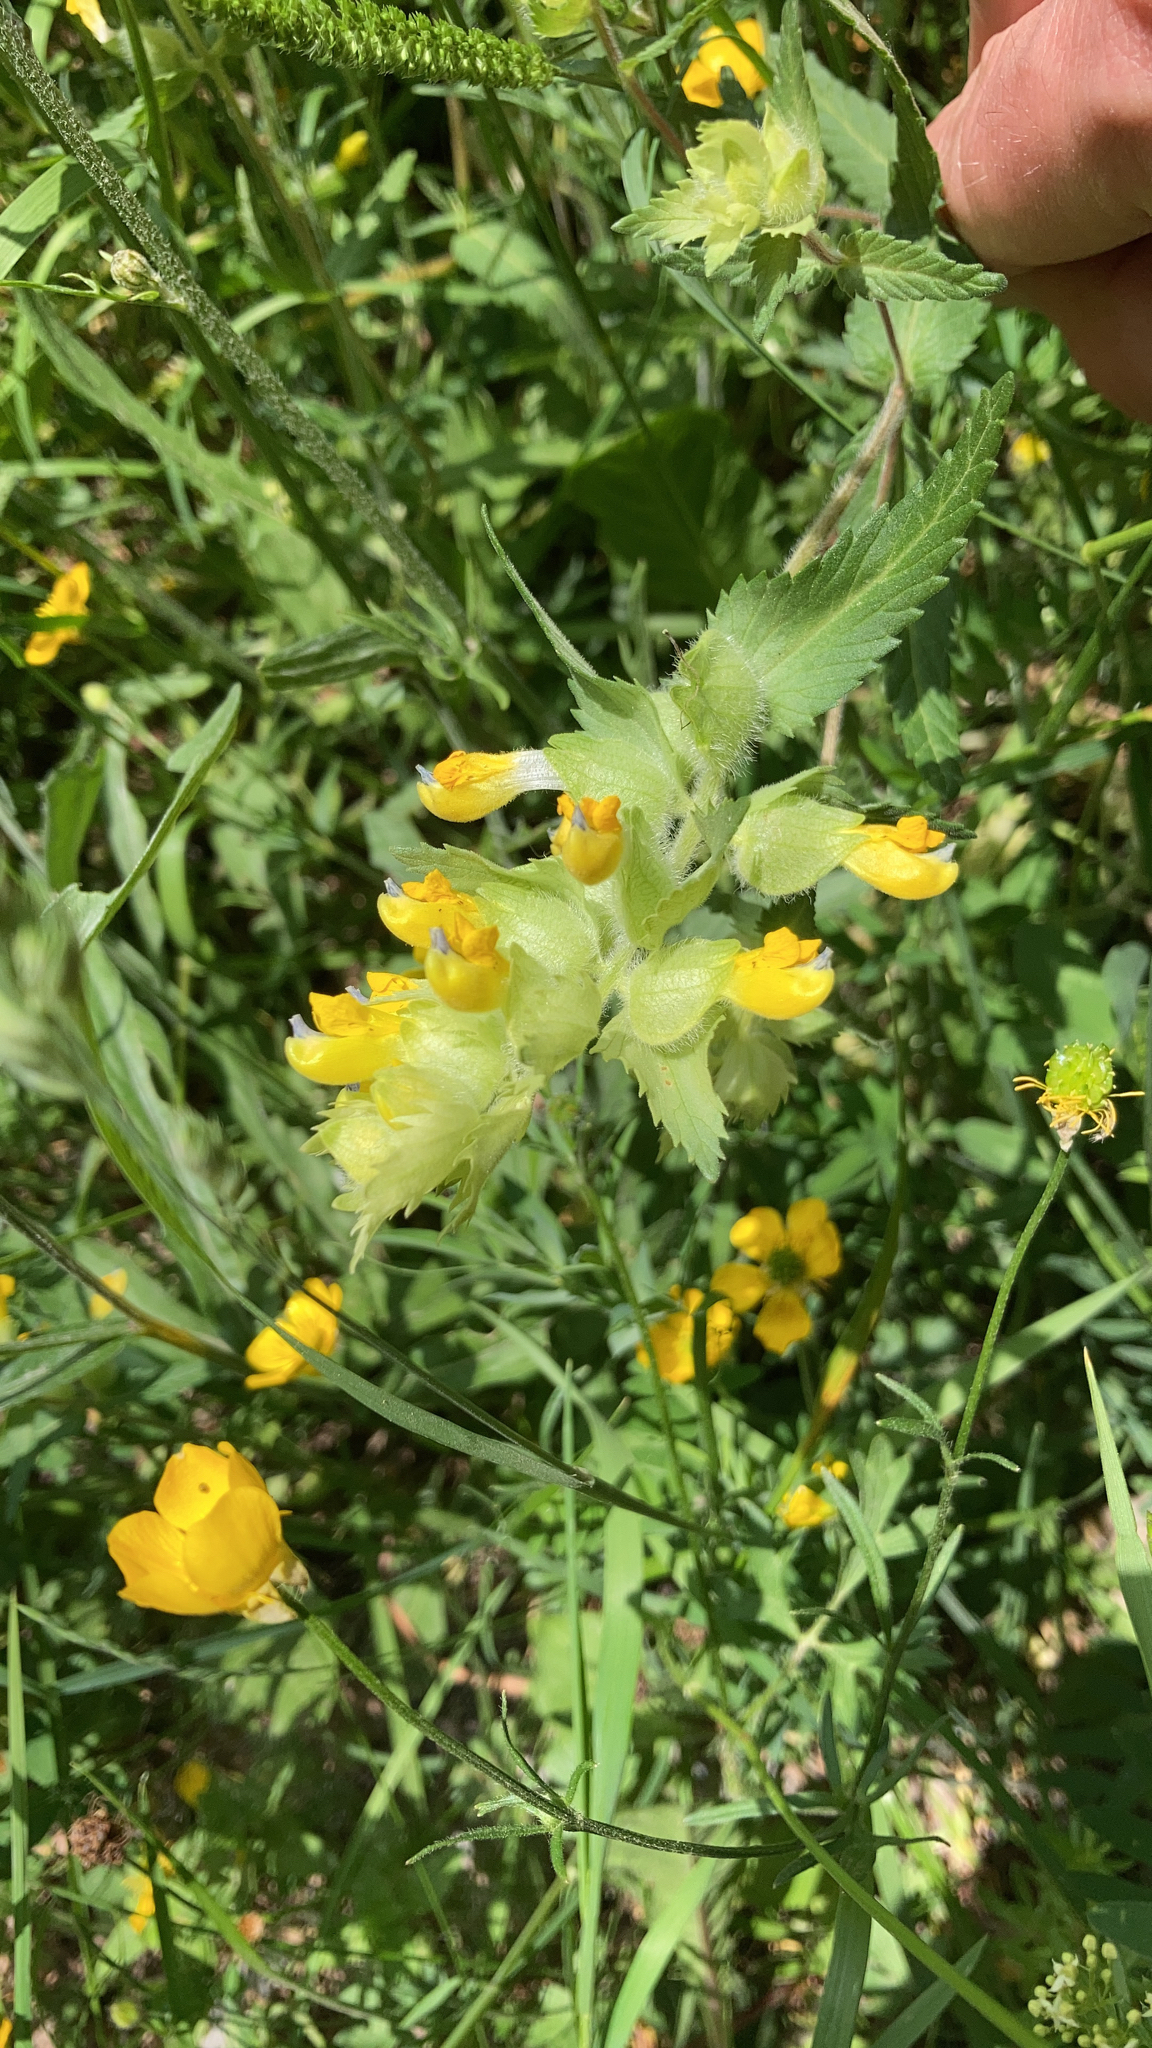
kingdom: Plantae
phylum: Tracheophyta
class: Magnoliopsida
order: Lamiales
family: Orobanchaceae
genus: Rhinanthus
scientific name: Rhinanthus alectorolophus
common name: Greater yellow-rattle
